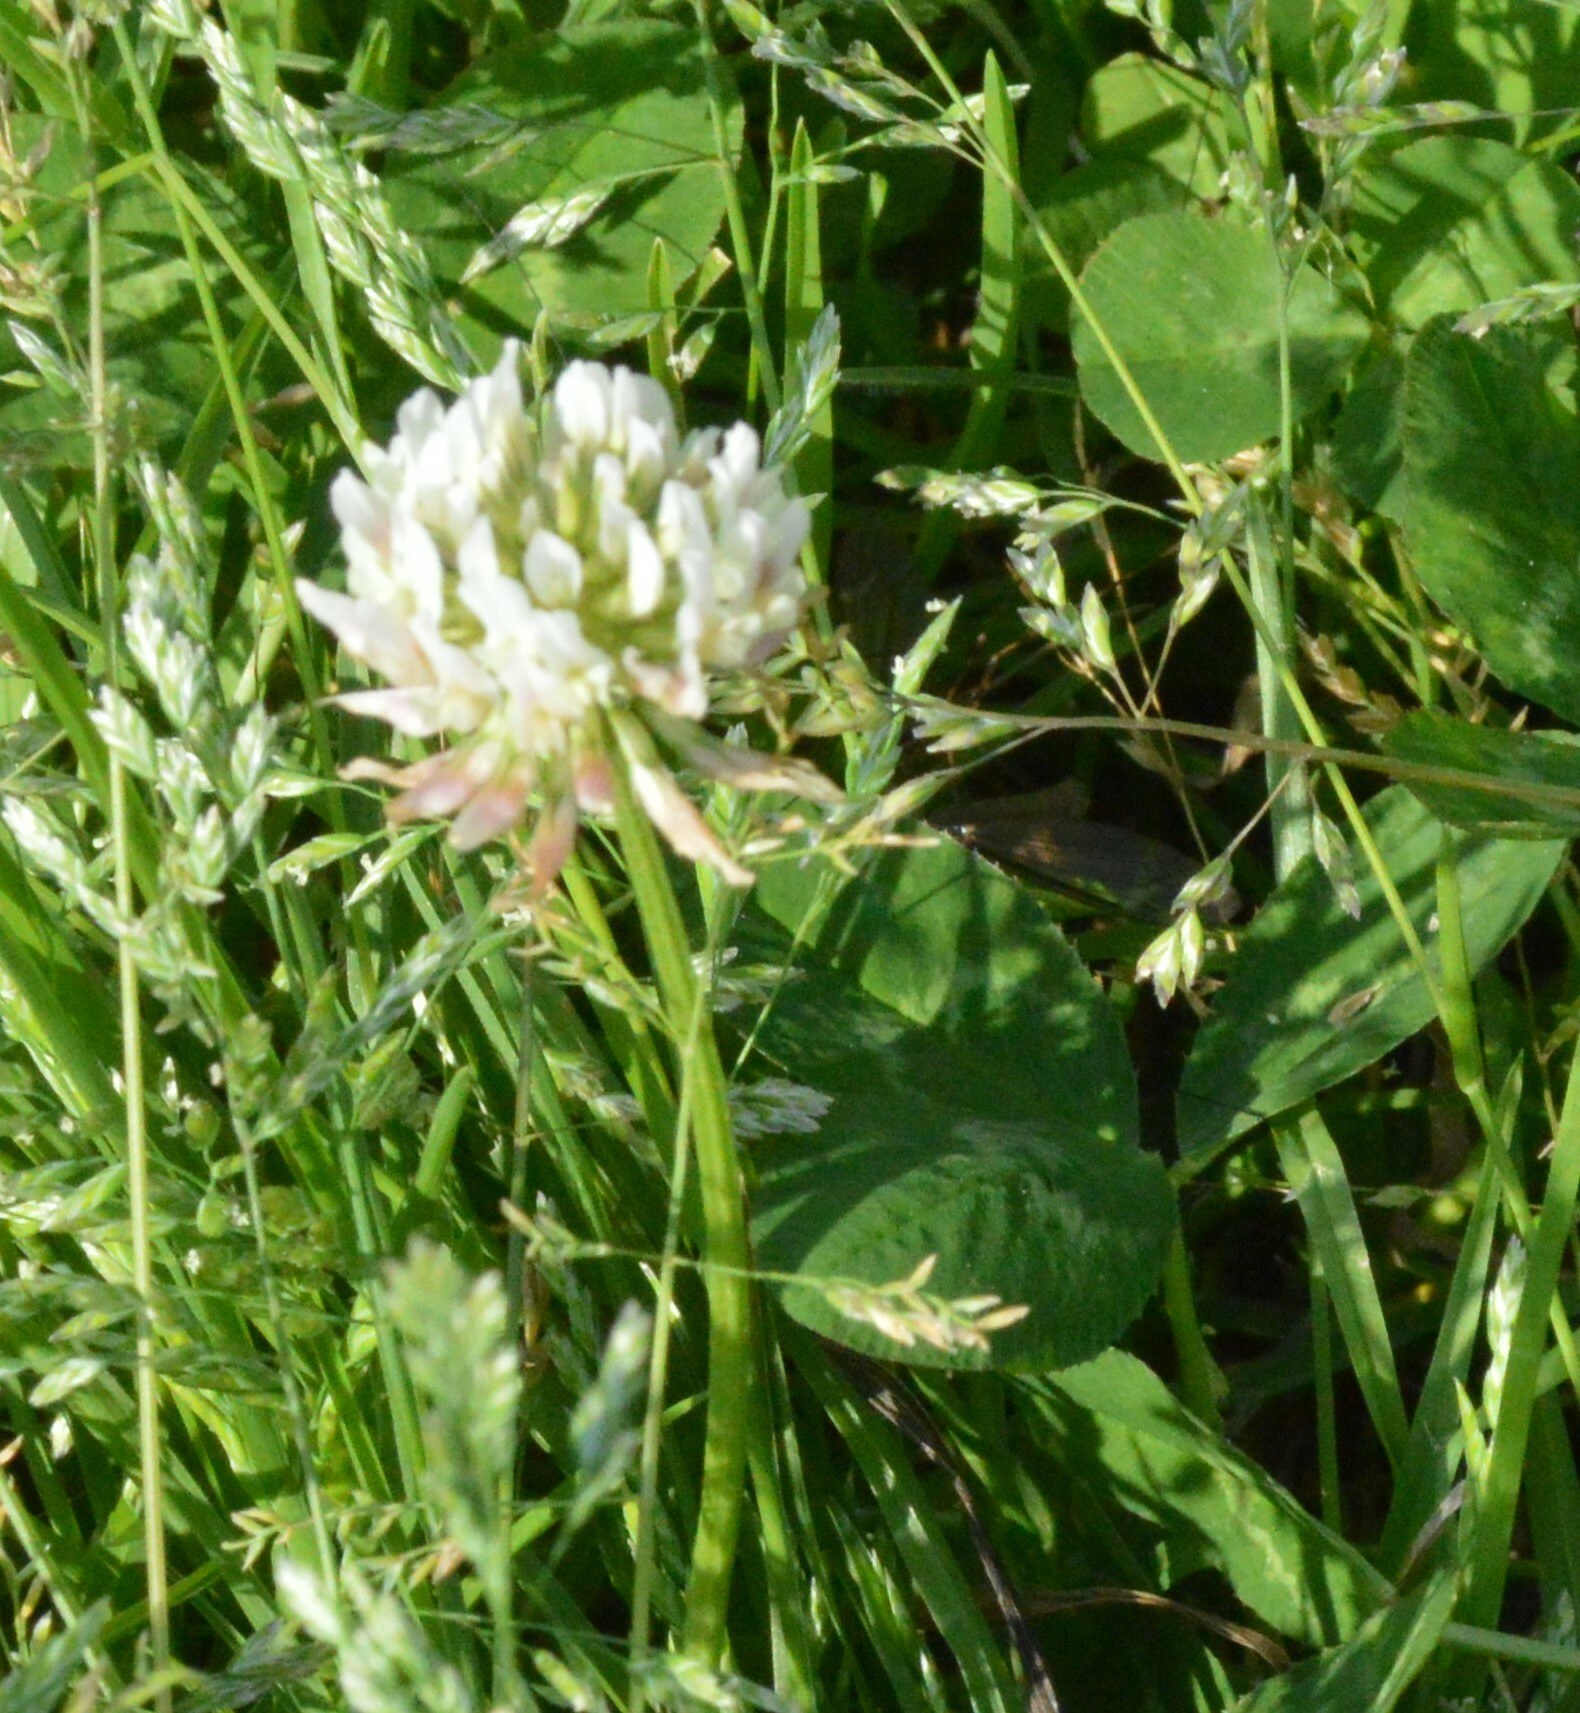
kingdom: Plantae
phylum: Tracheophyta
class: Magnoliopsida
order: Fabales
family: Fabaceae
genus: Trifolium
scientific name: Trifolium repens
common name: White clover
